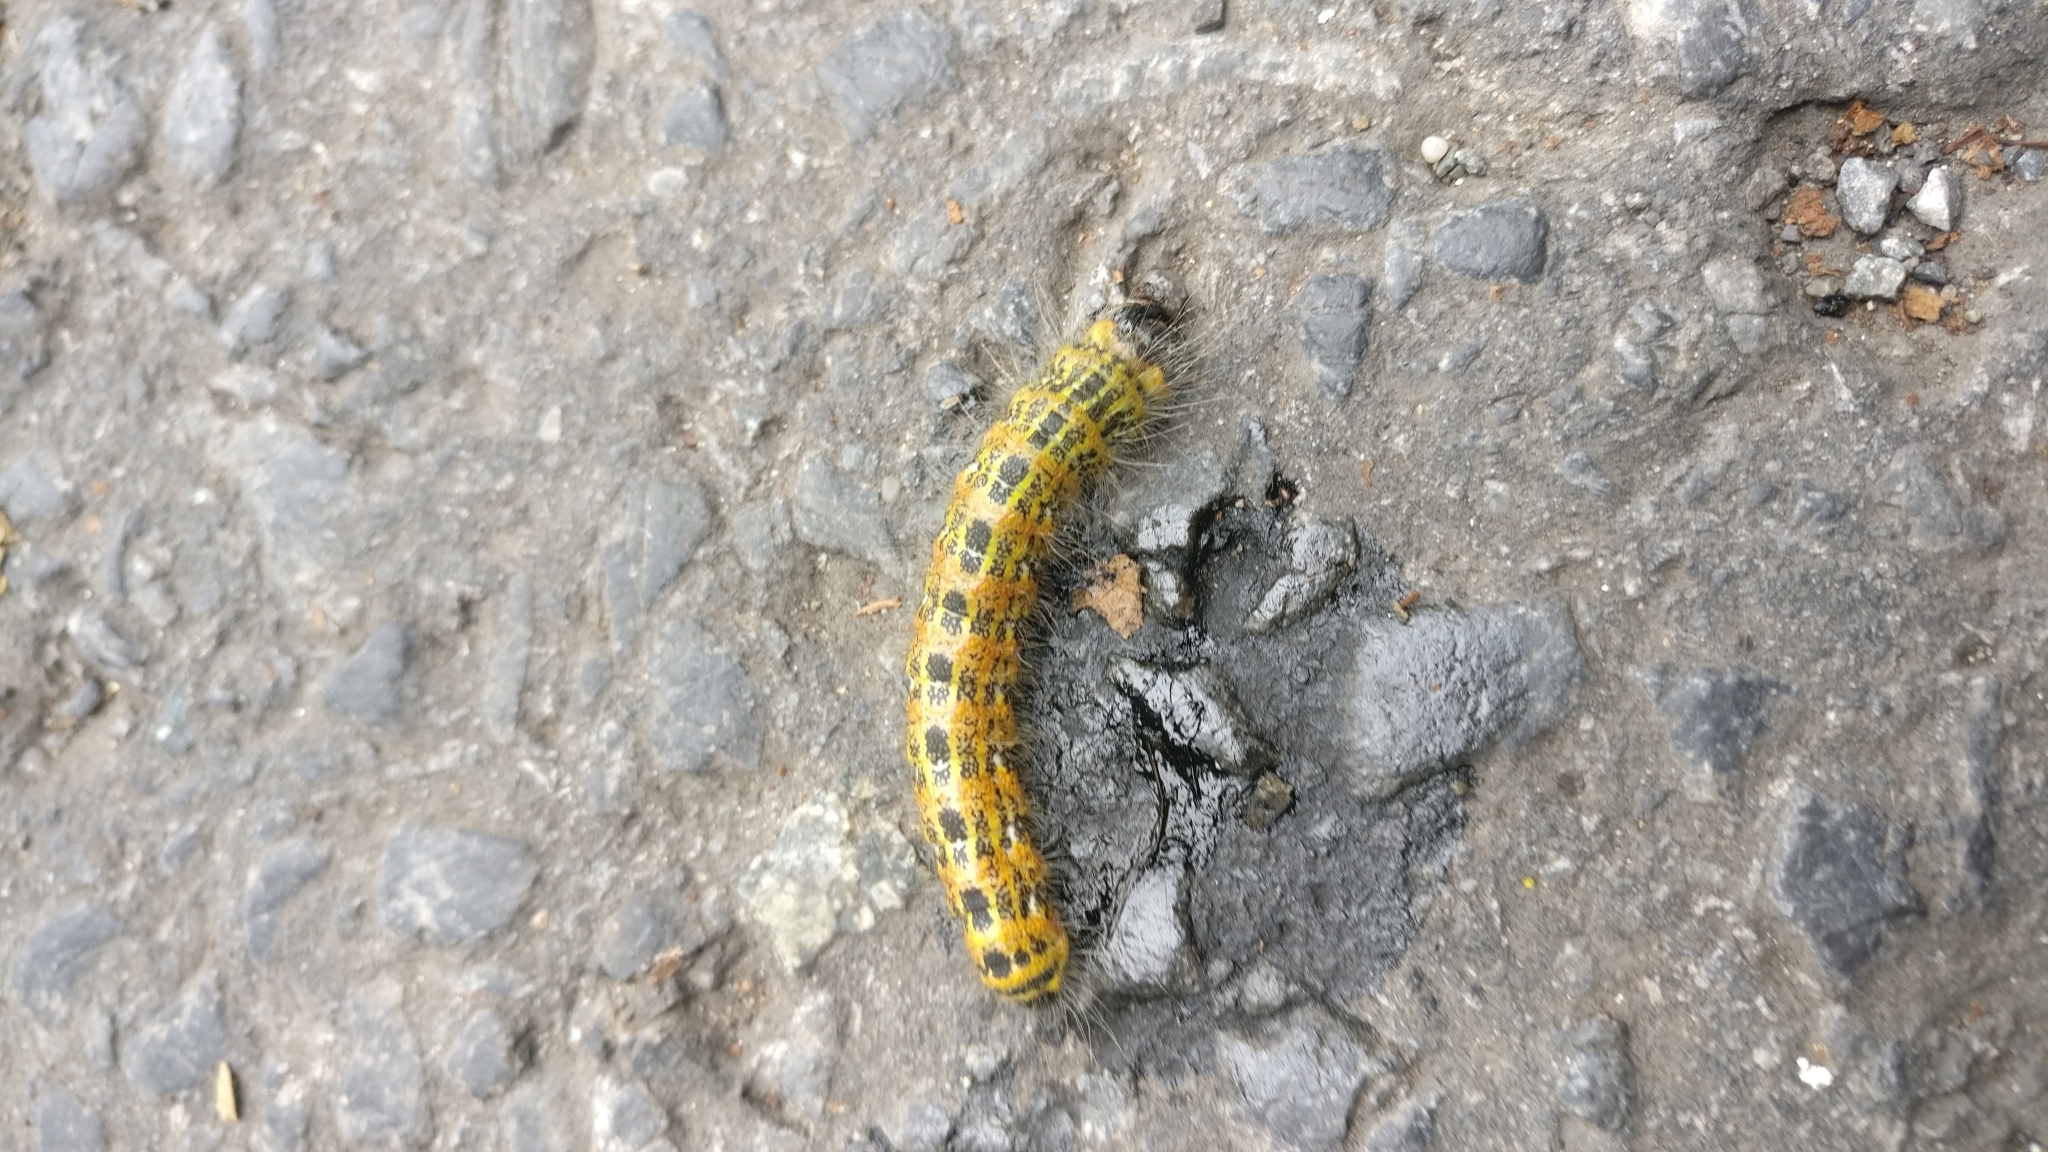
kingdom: Animalia
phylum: Arthropoda
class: Insecta
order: Lepidoptera
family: Notodontidae
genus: Phalera
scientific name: Phalera bucephala
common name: Buff-tip
